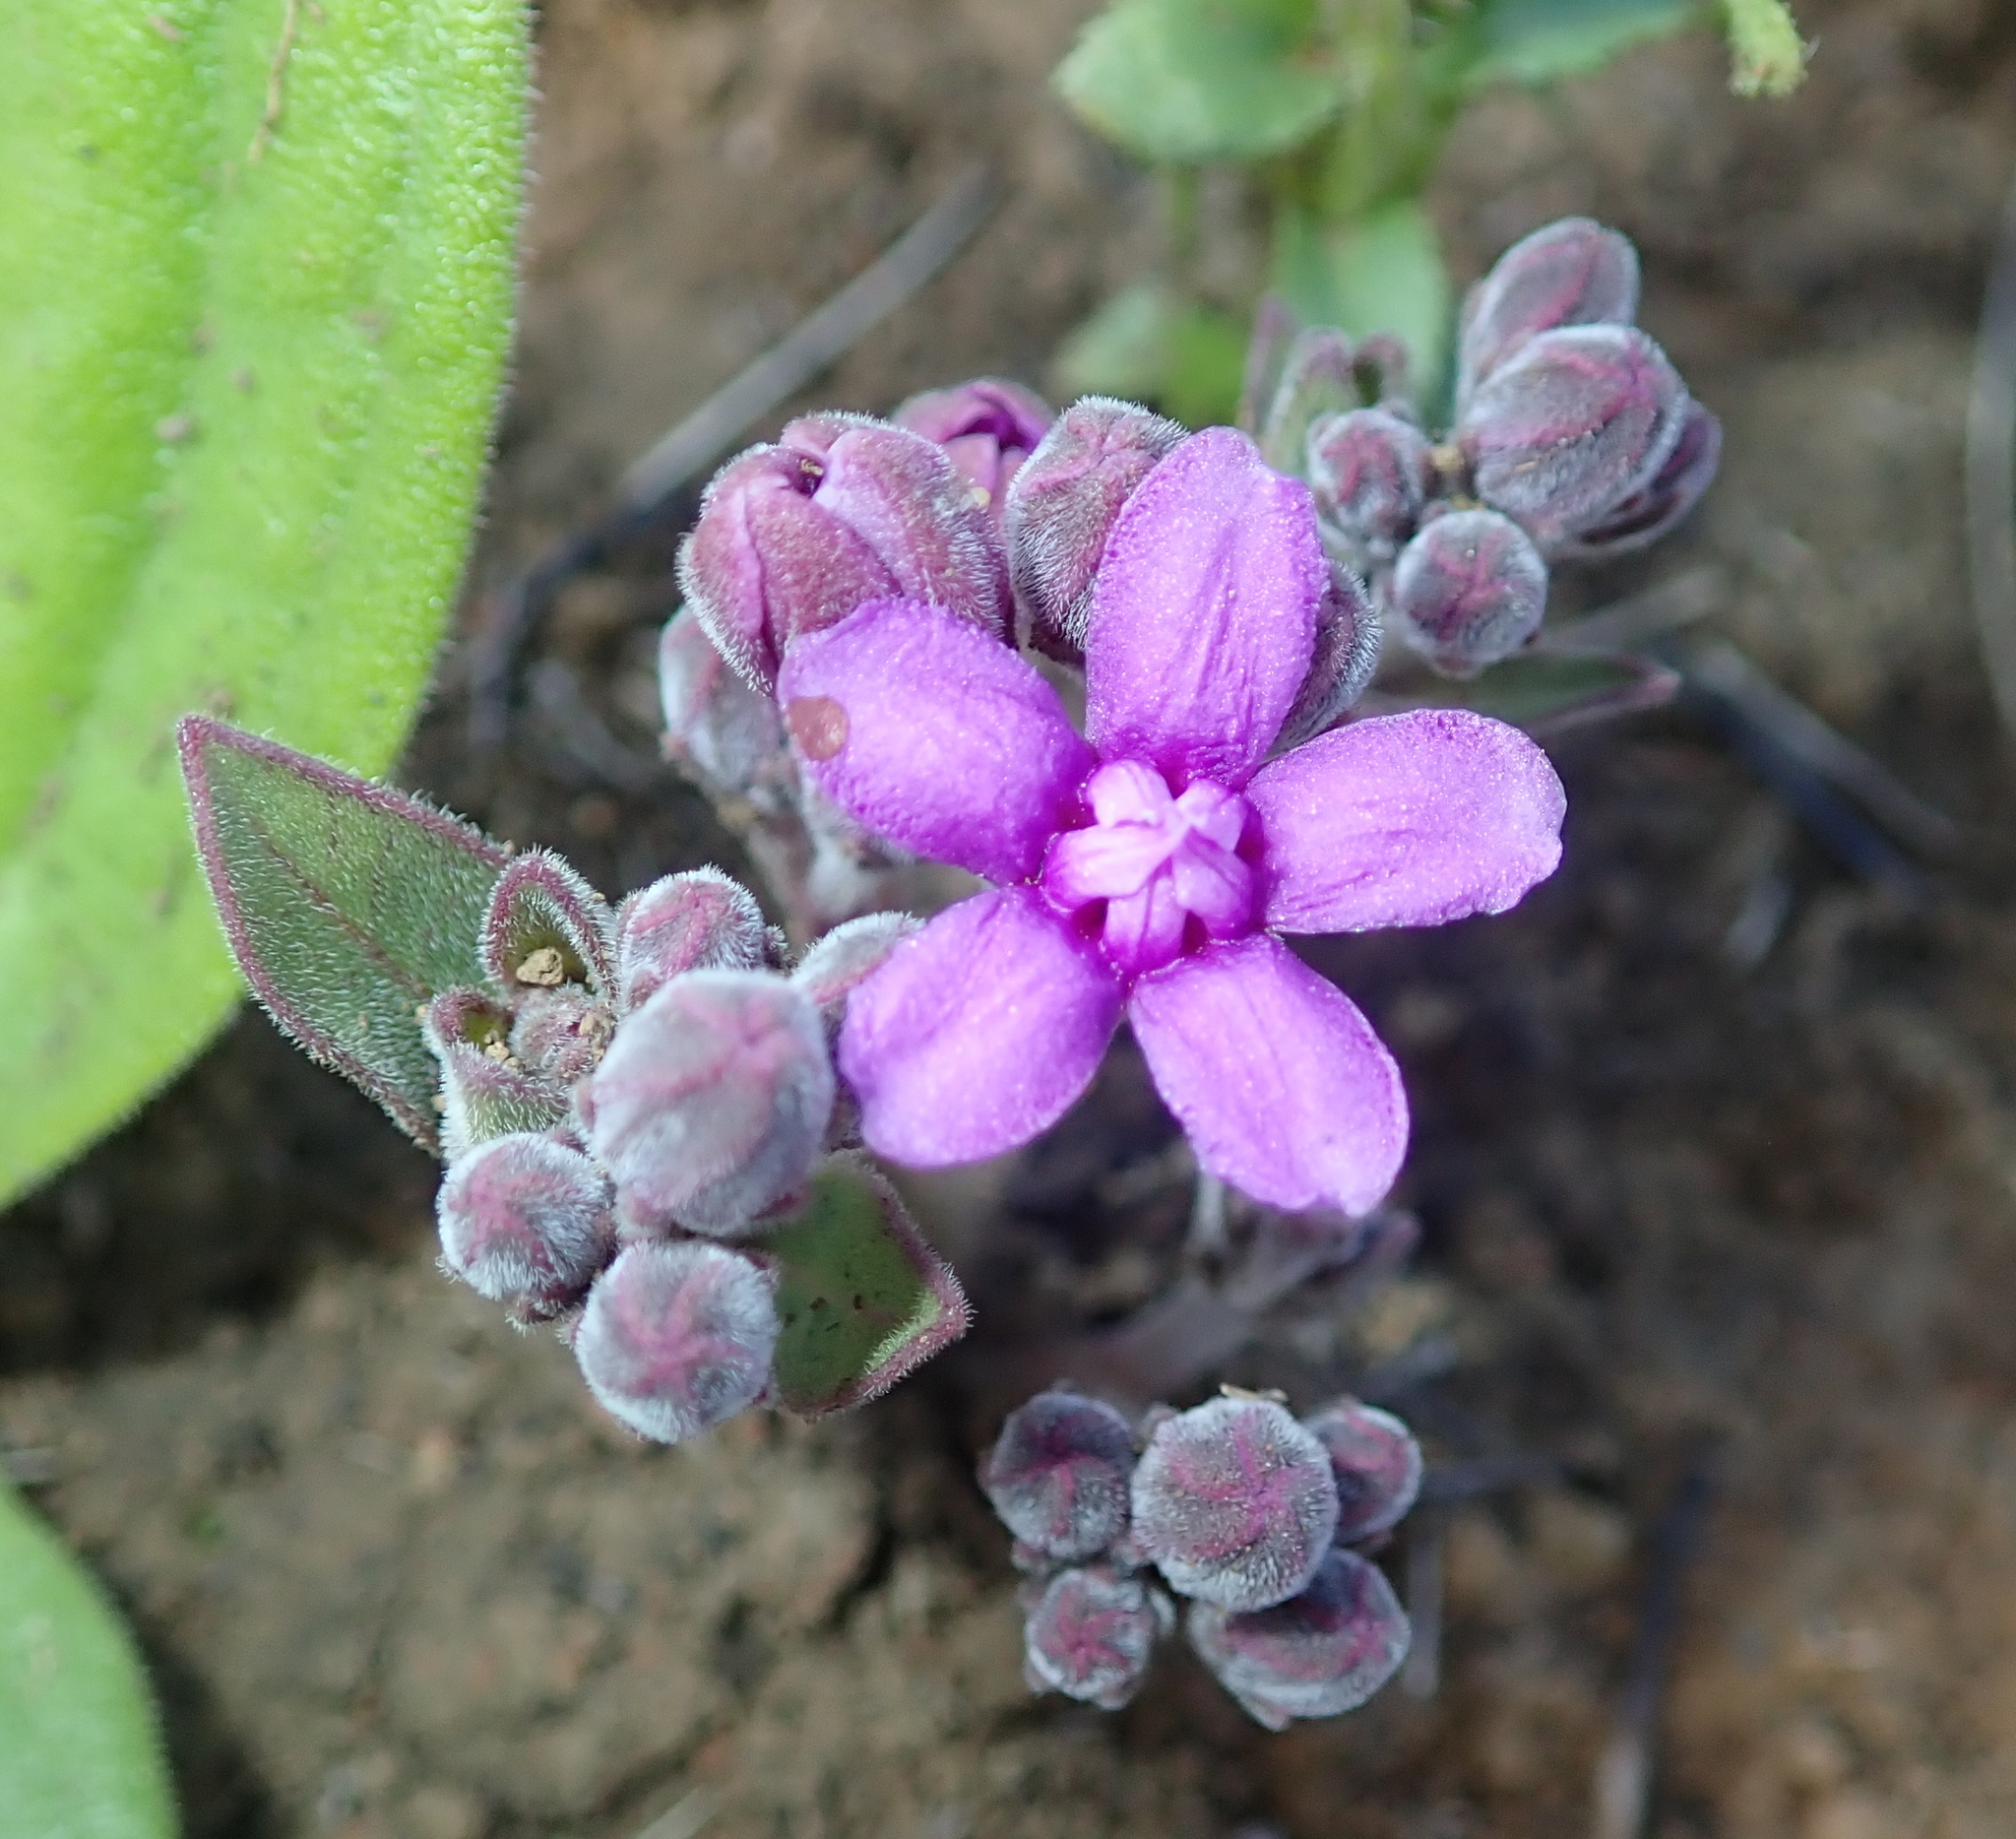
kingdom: Plantae
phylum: Tracheophyta
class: Magnoliopsida
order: Gentianales
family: Apocynaceae
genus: Raphionacme
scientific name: Raphionacme hirsuta
